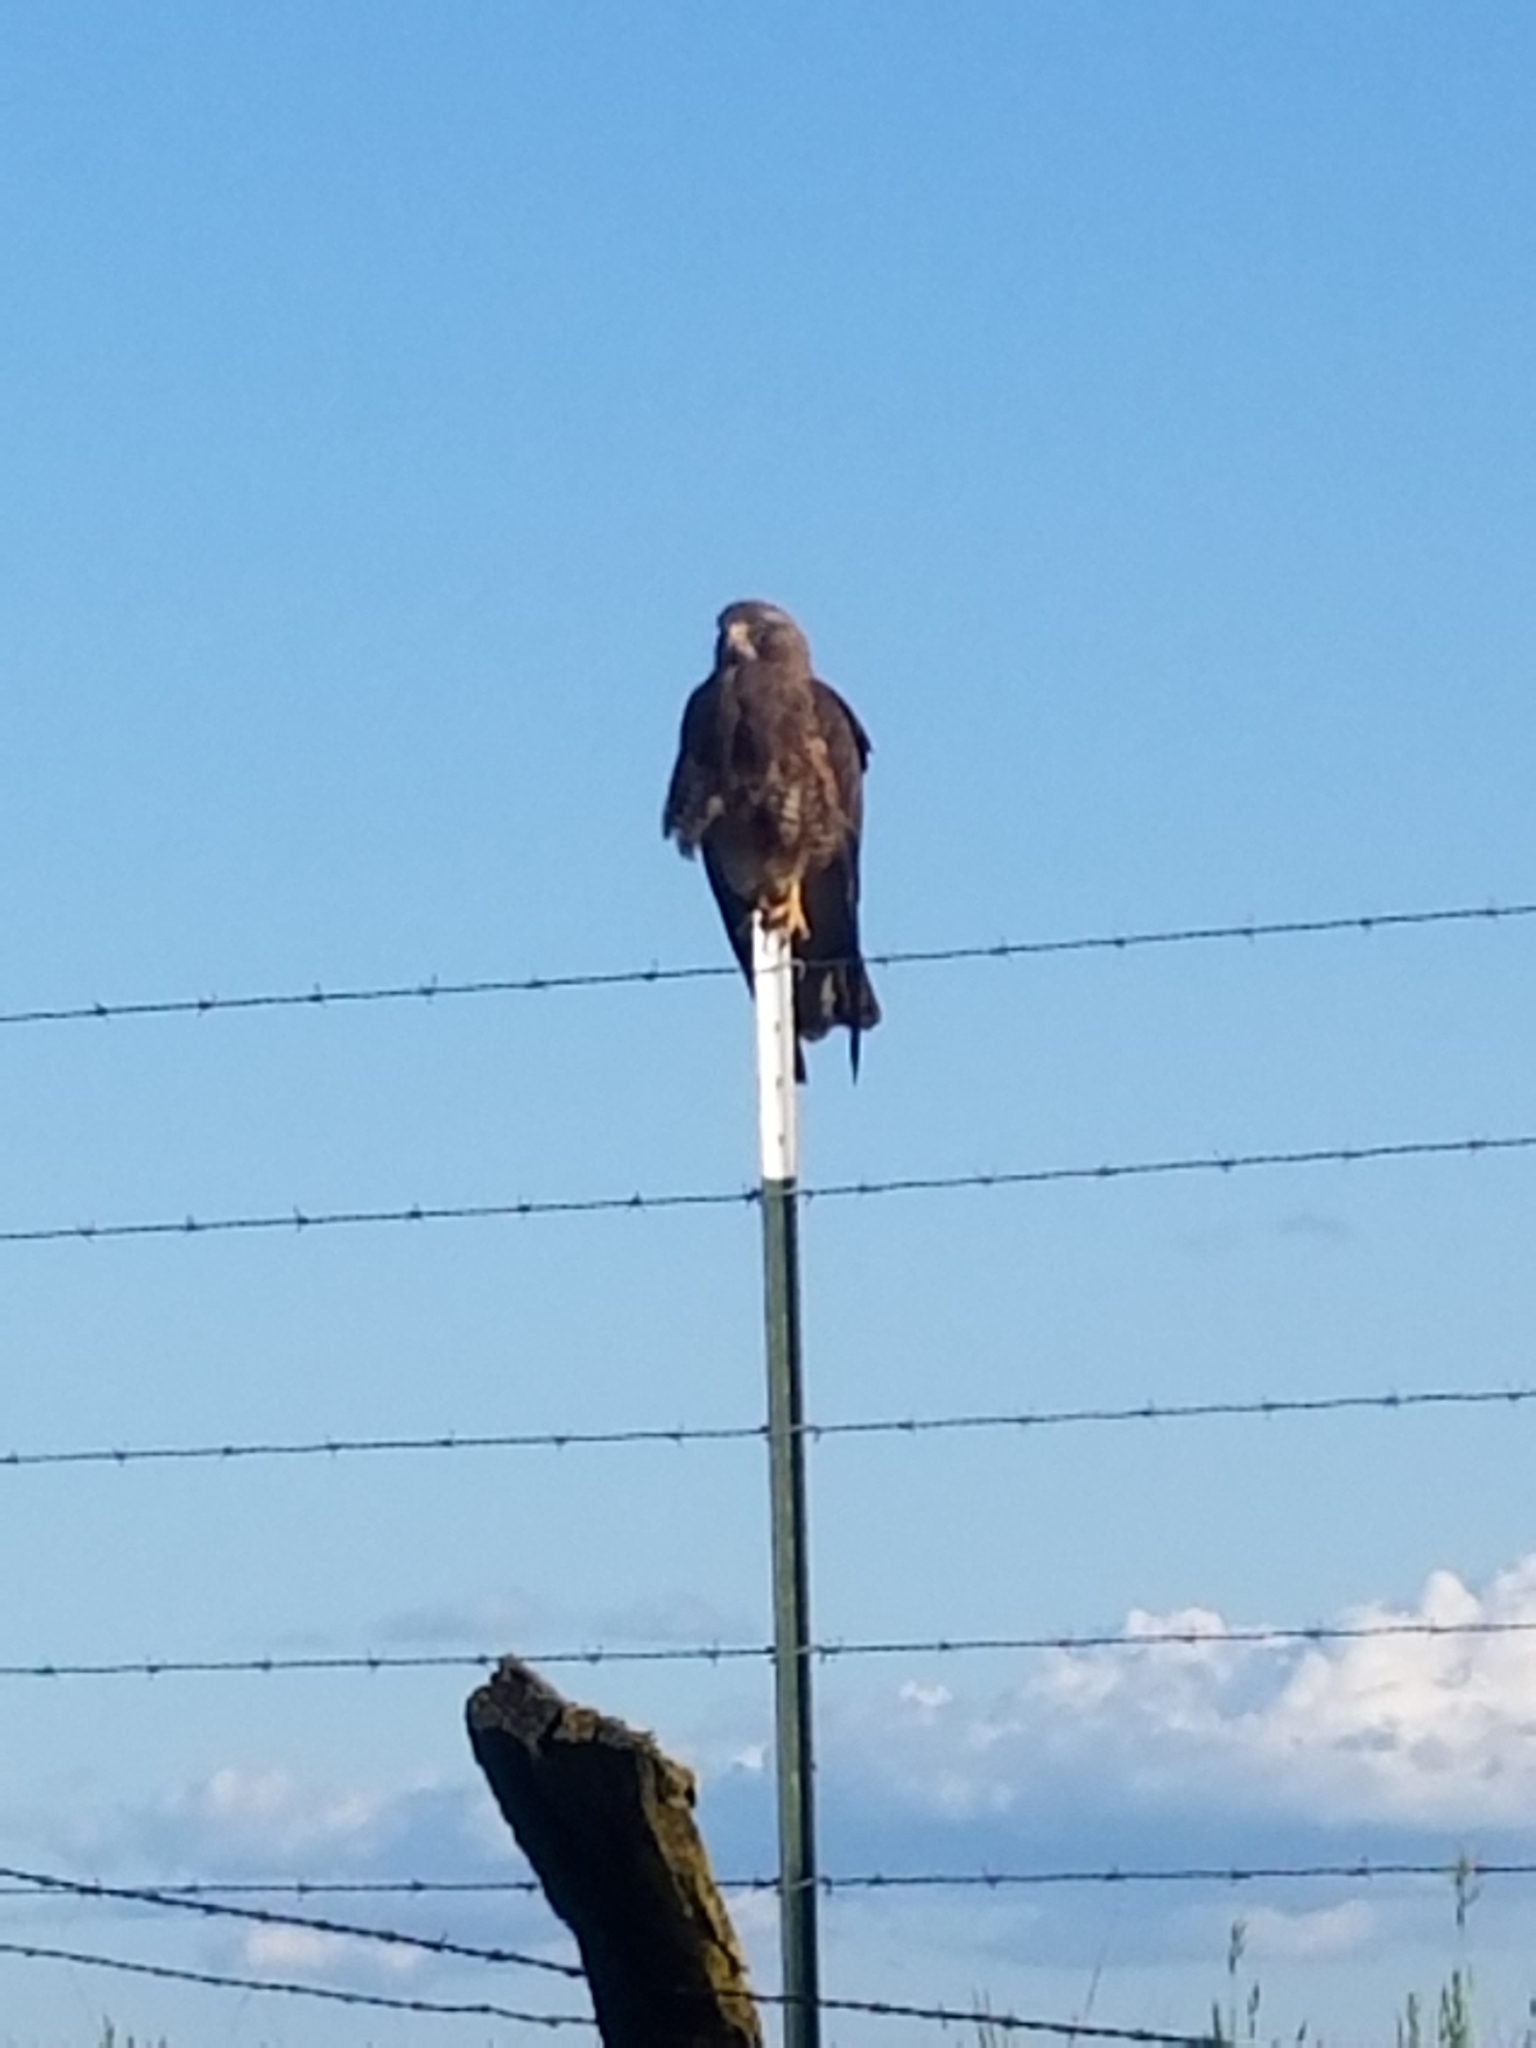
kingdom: Animalia
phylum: Chordata
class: Aves
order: Accipitriformes
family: Accipitridae
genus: Buteo
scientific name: Buteo swainsoni
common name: Swainson's hawk
